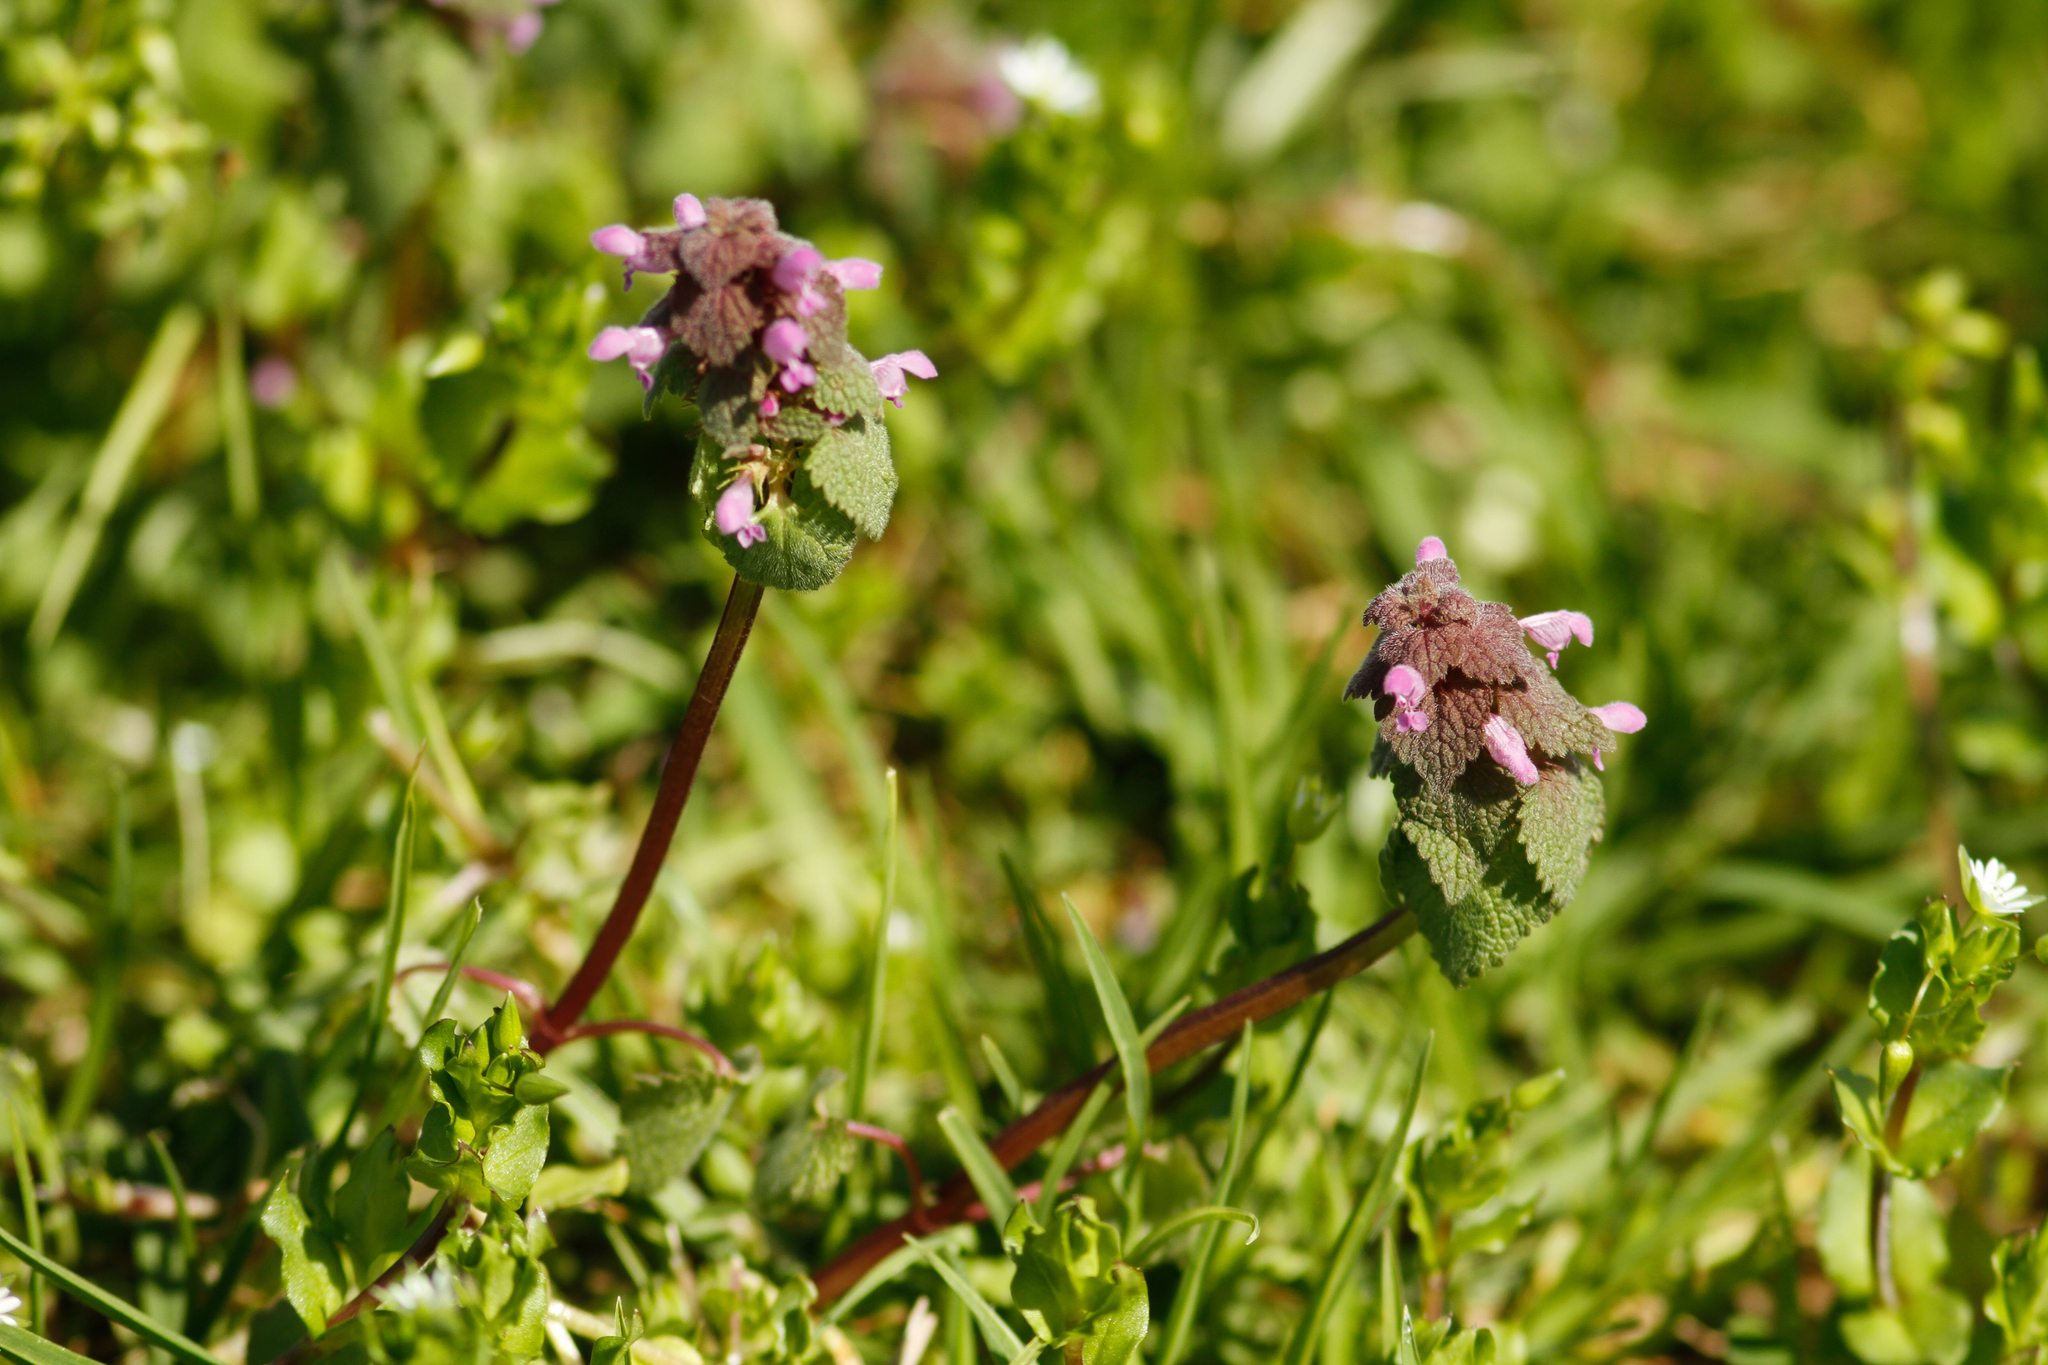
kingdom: Plantae
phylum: Tracheophyta
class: Magnoliopsida
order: Lamiales
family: Lamiaceae
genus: Lamium
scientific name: Lamium purpureum
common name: Red dead-nettle
